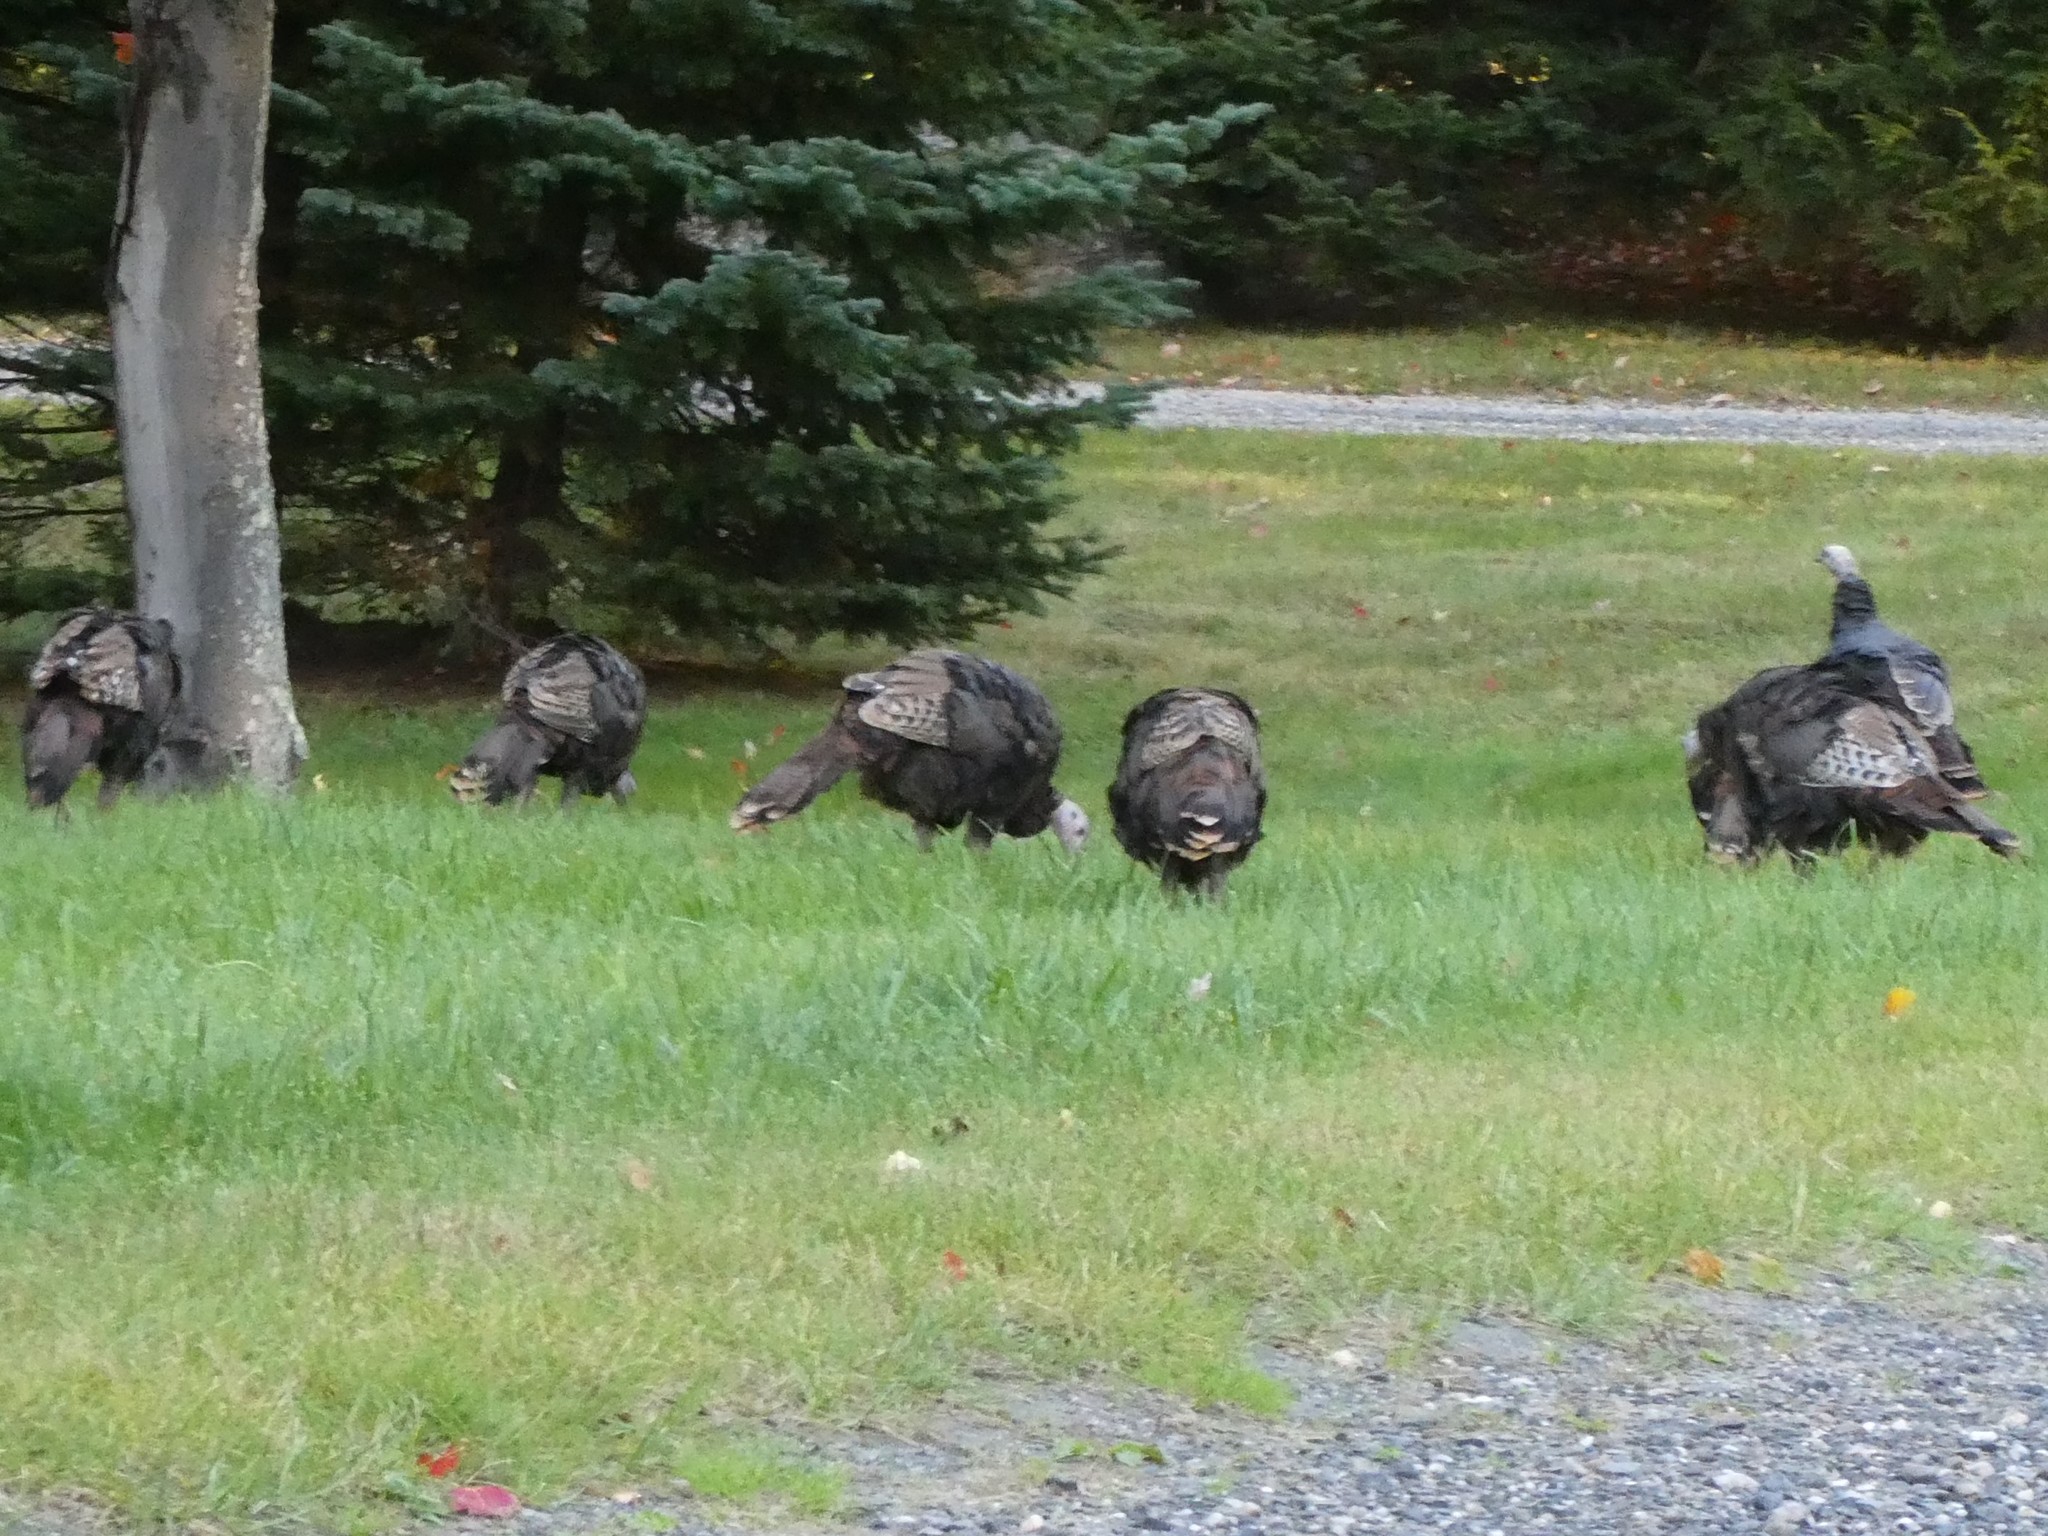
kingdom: Animalia
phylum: Chordata
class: Aves
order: Galliformes
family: Phasianidae
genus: Meleagris
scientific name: Meleagris gallopavo
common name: Wild turkey
